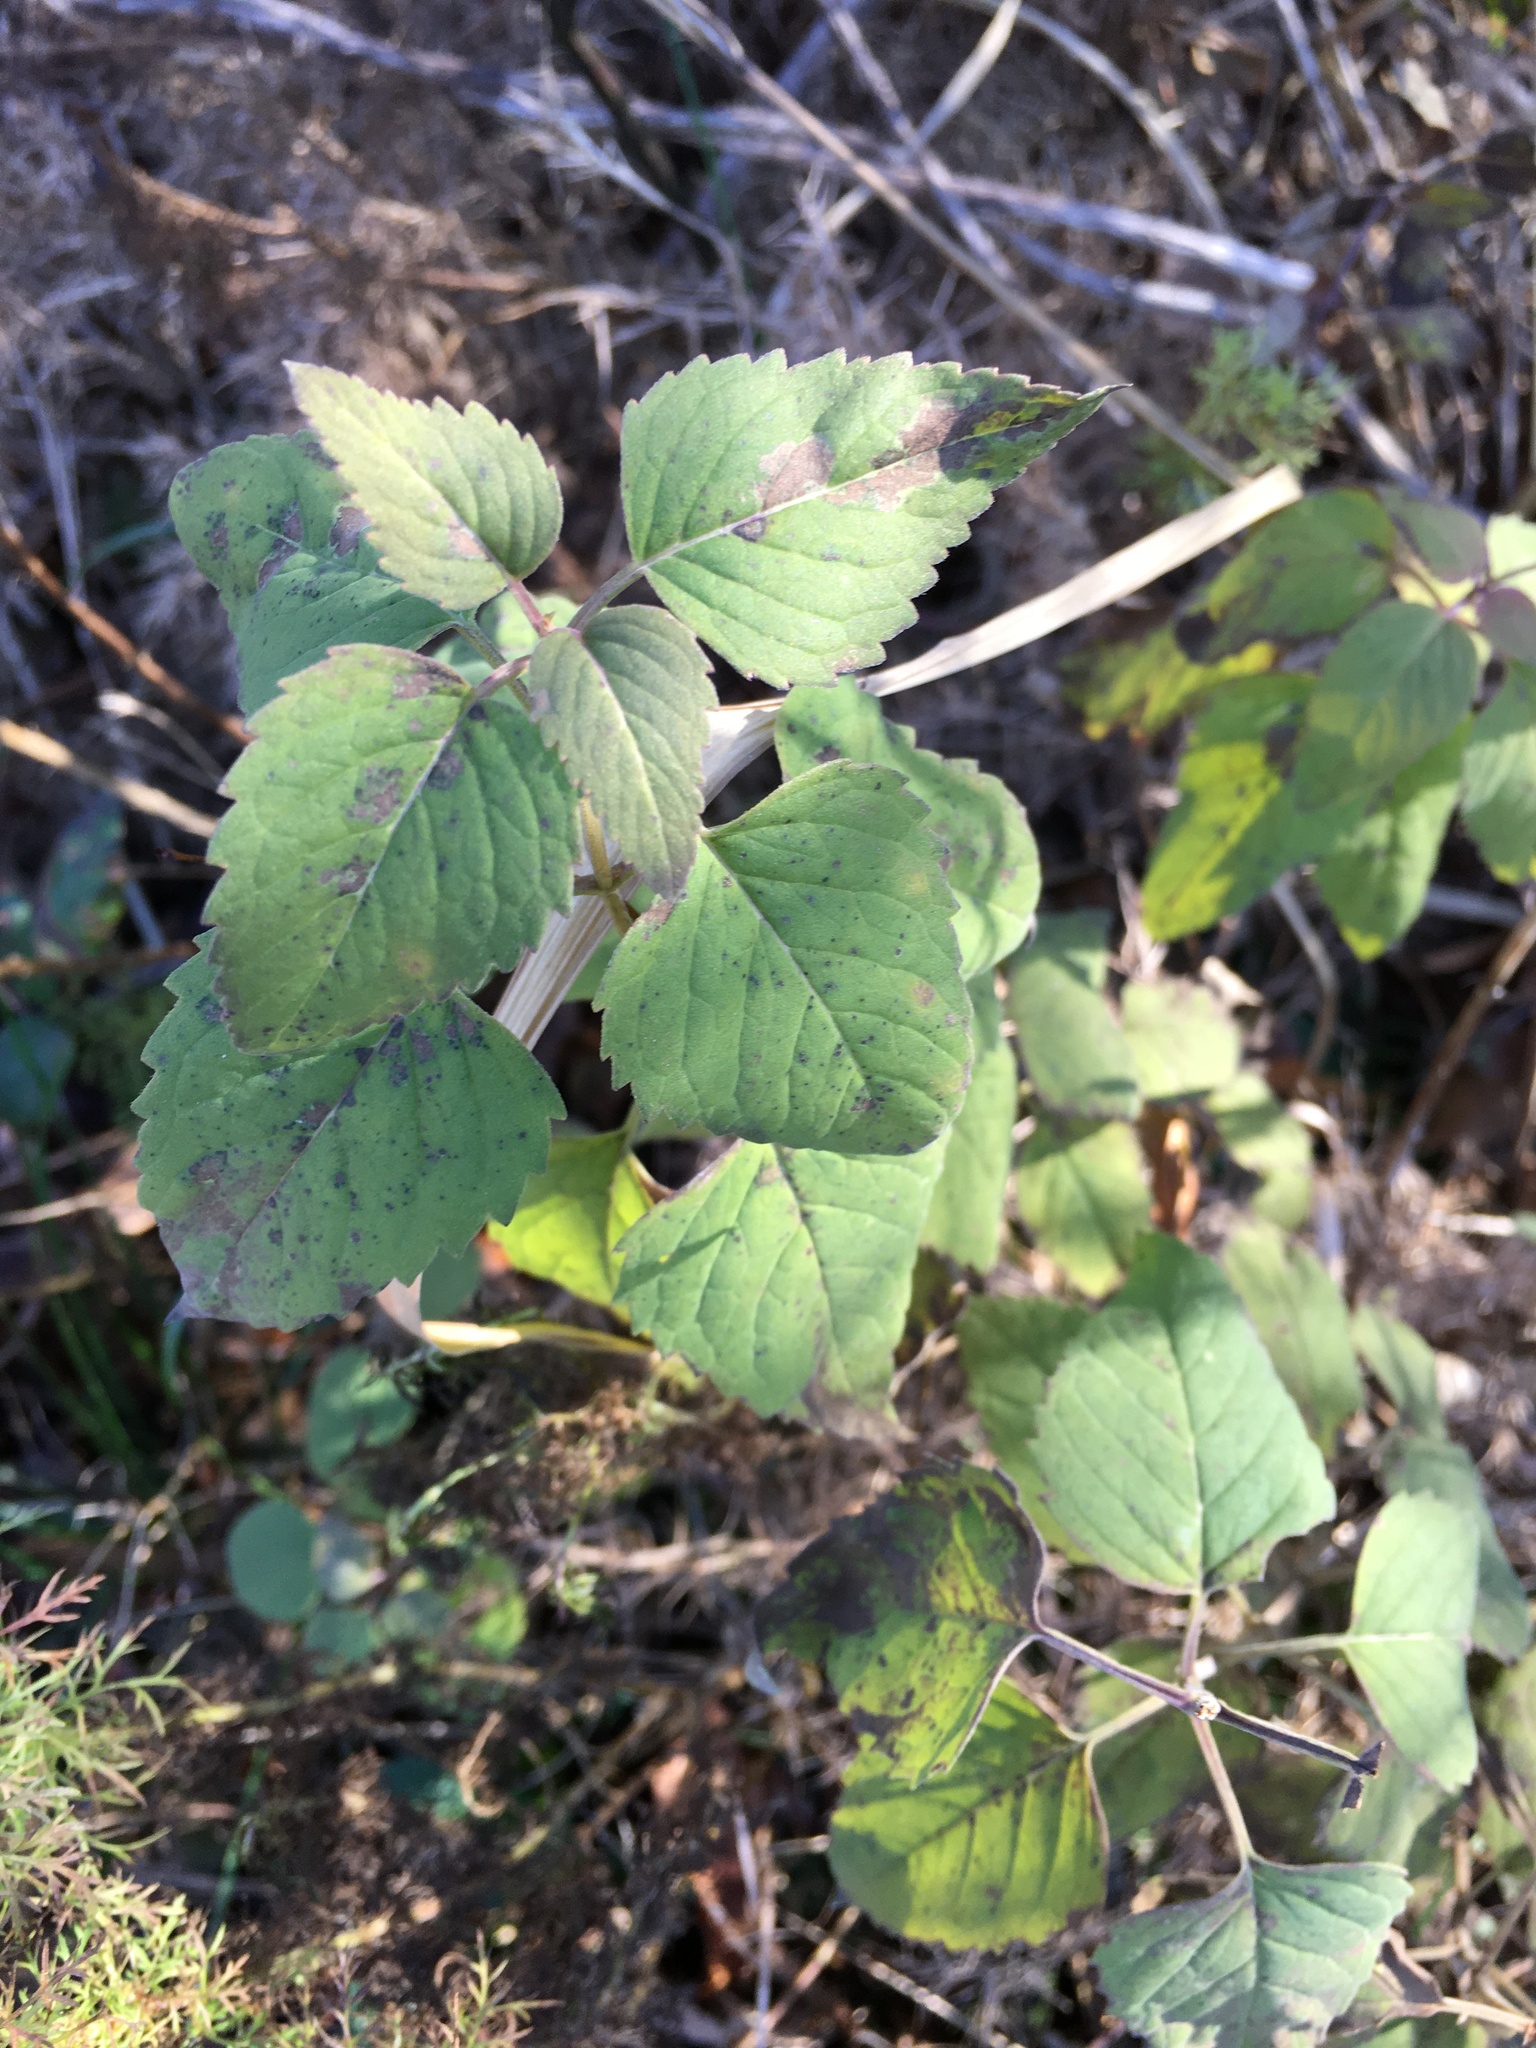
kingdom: Plantae
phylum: Tracheophyta
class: Magnoliopsida
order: Lamiales
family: Lamiaceae
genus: Monarda
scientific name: Monarda fistulosa
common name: Purple beebalm
